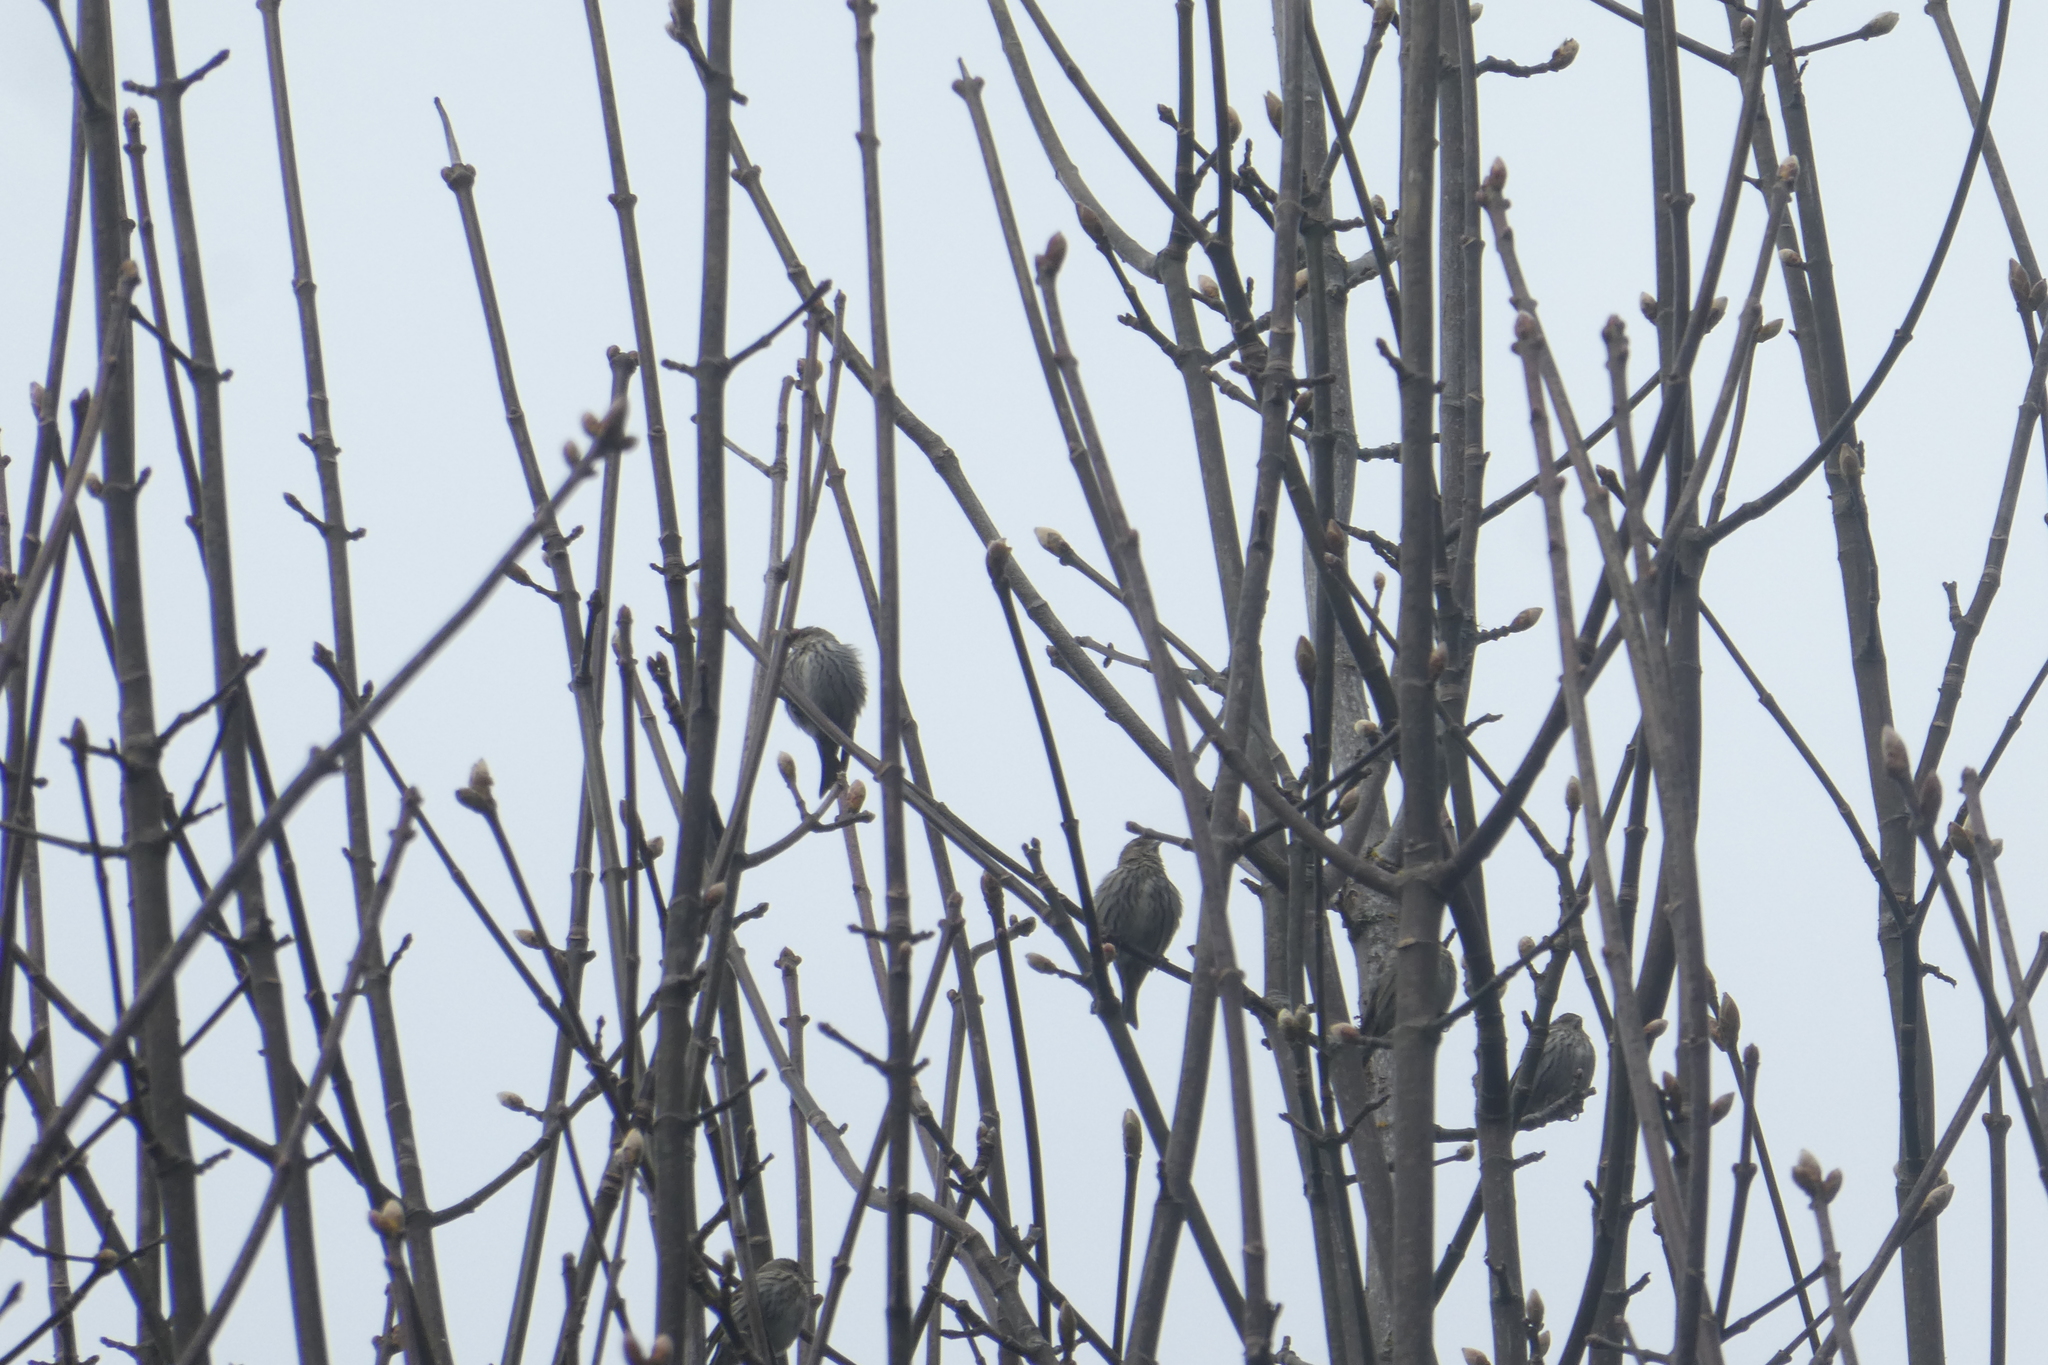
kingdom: Animalia
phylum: Chordata
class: Aves
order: Passeriformes
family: Fringillidae
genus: Spinus
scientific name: Spinus pinus
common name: Pine siskin
